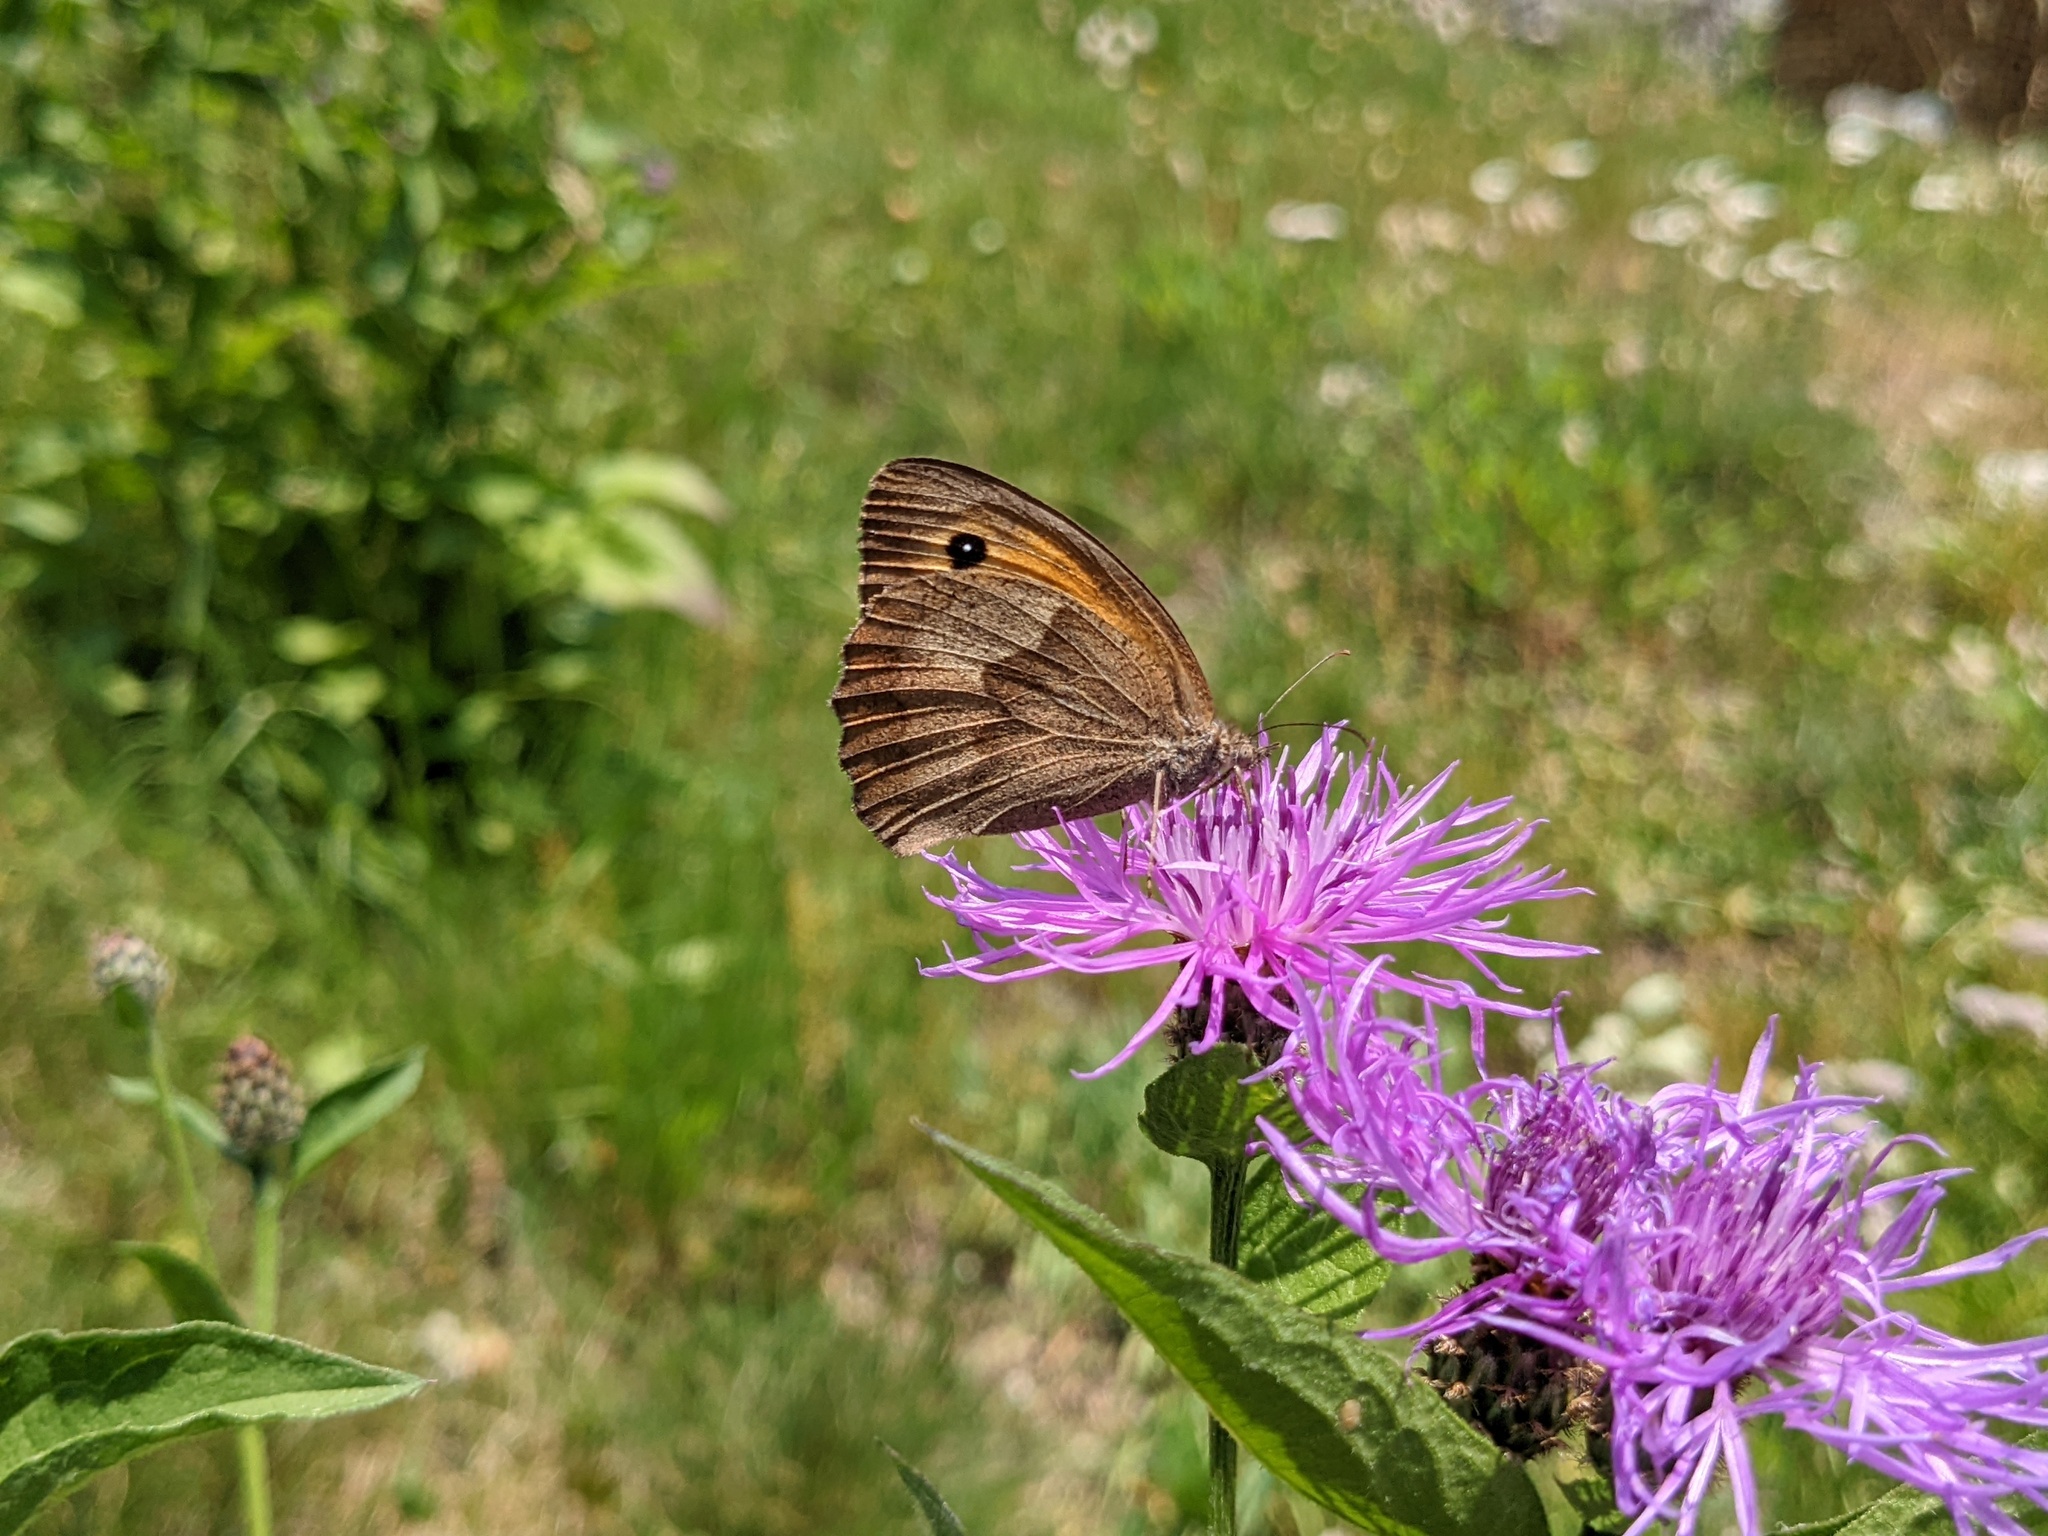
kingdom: Animalia
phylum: Arthropoda
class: Insecta
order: Lepidoptera
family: Nymphalidae
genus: Maniola
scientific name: Maniola jurtina
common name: Meadow brown
